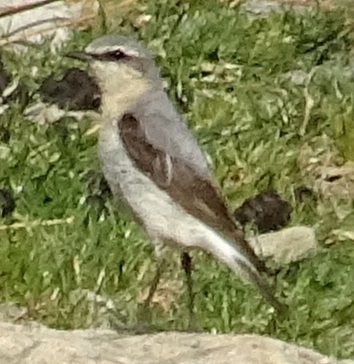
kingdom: Animalia
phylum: Chordata
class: Aves
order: Passeriformes
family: Muscicapidae
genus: Oenanthe
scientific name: Oenanthe oenanthe
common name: Northern wheatear
